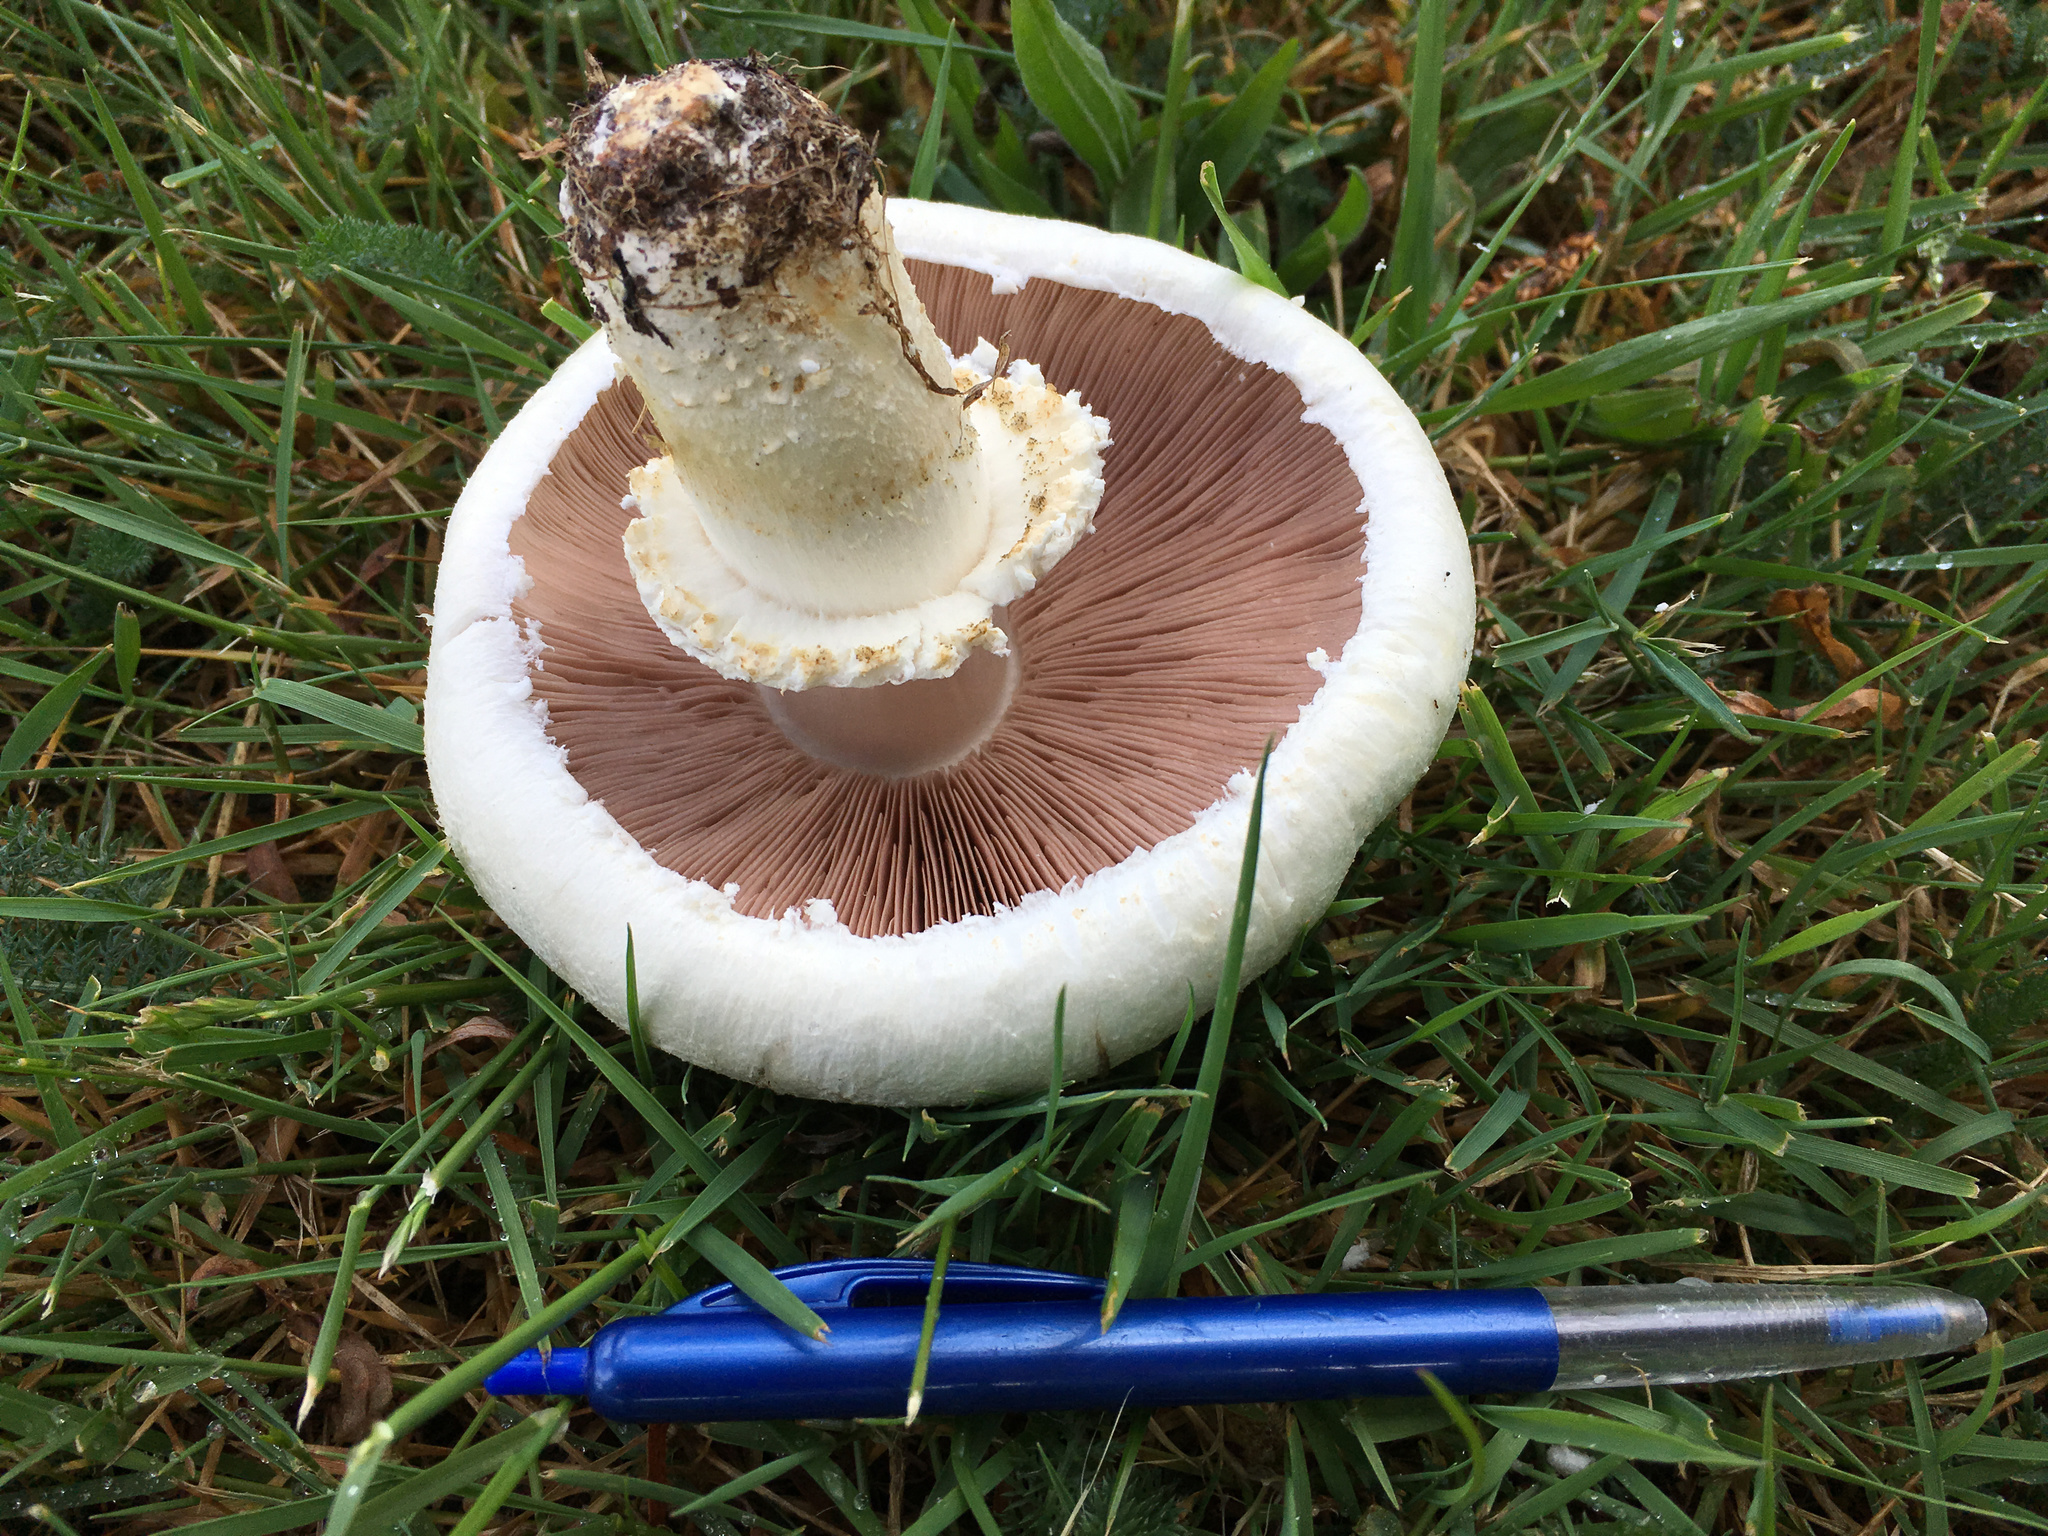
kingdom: Fungi
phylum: Basidiomycota
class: Agaricomycetes
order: Agaricales
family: Agaricaceae
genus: Agaricus
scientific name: Agaricus arvensis
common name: Horse mushroom
